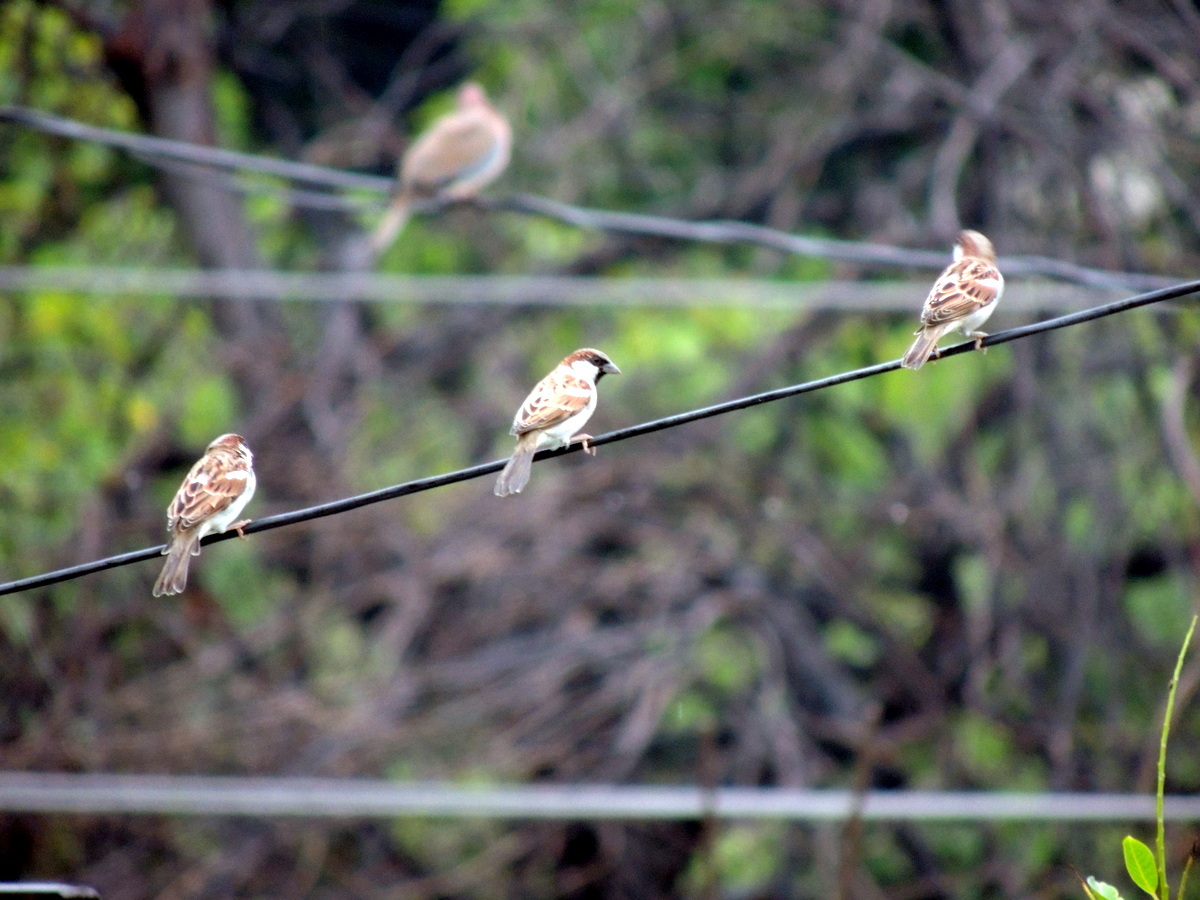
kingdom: Animalia
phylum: Chordata
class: Aves
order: Passeriformes
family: Passeridae
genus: Passer
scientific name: Passer domesticus
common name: House sparrow
